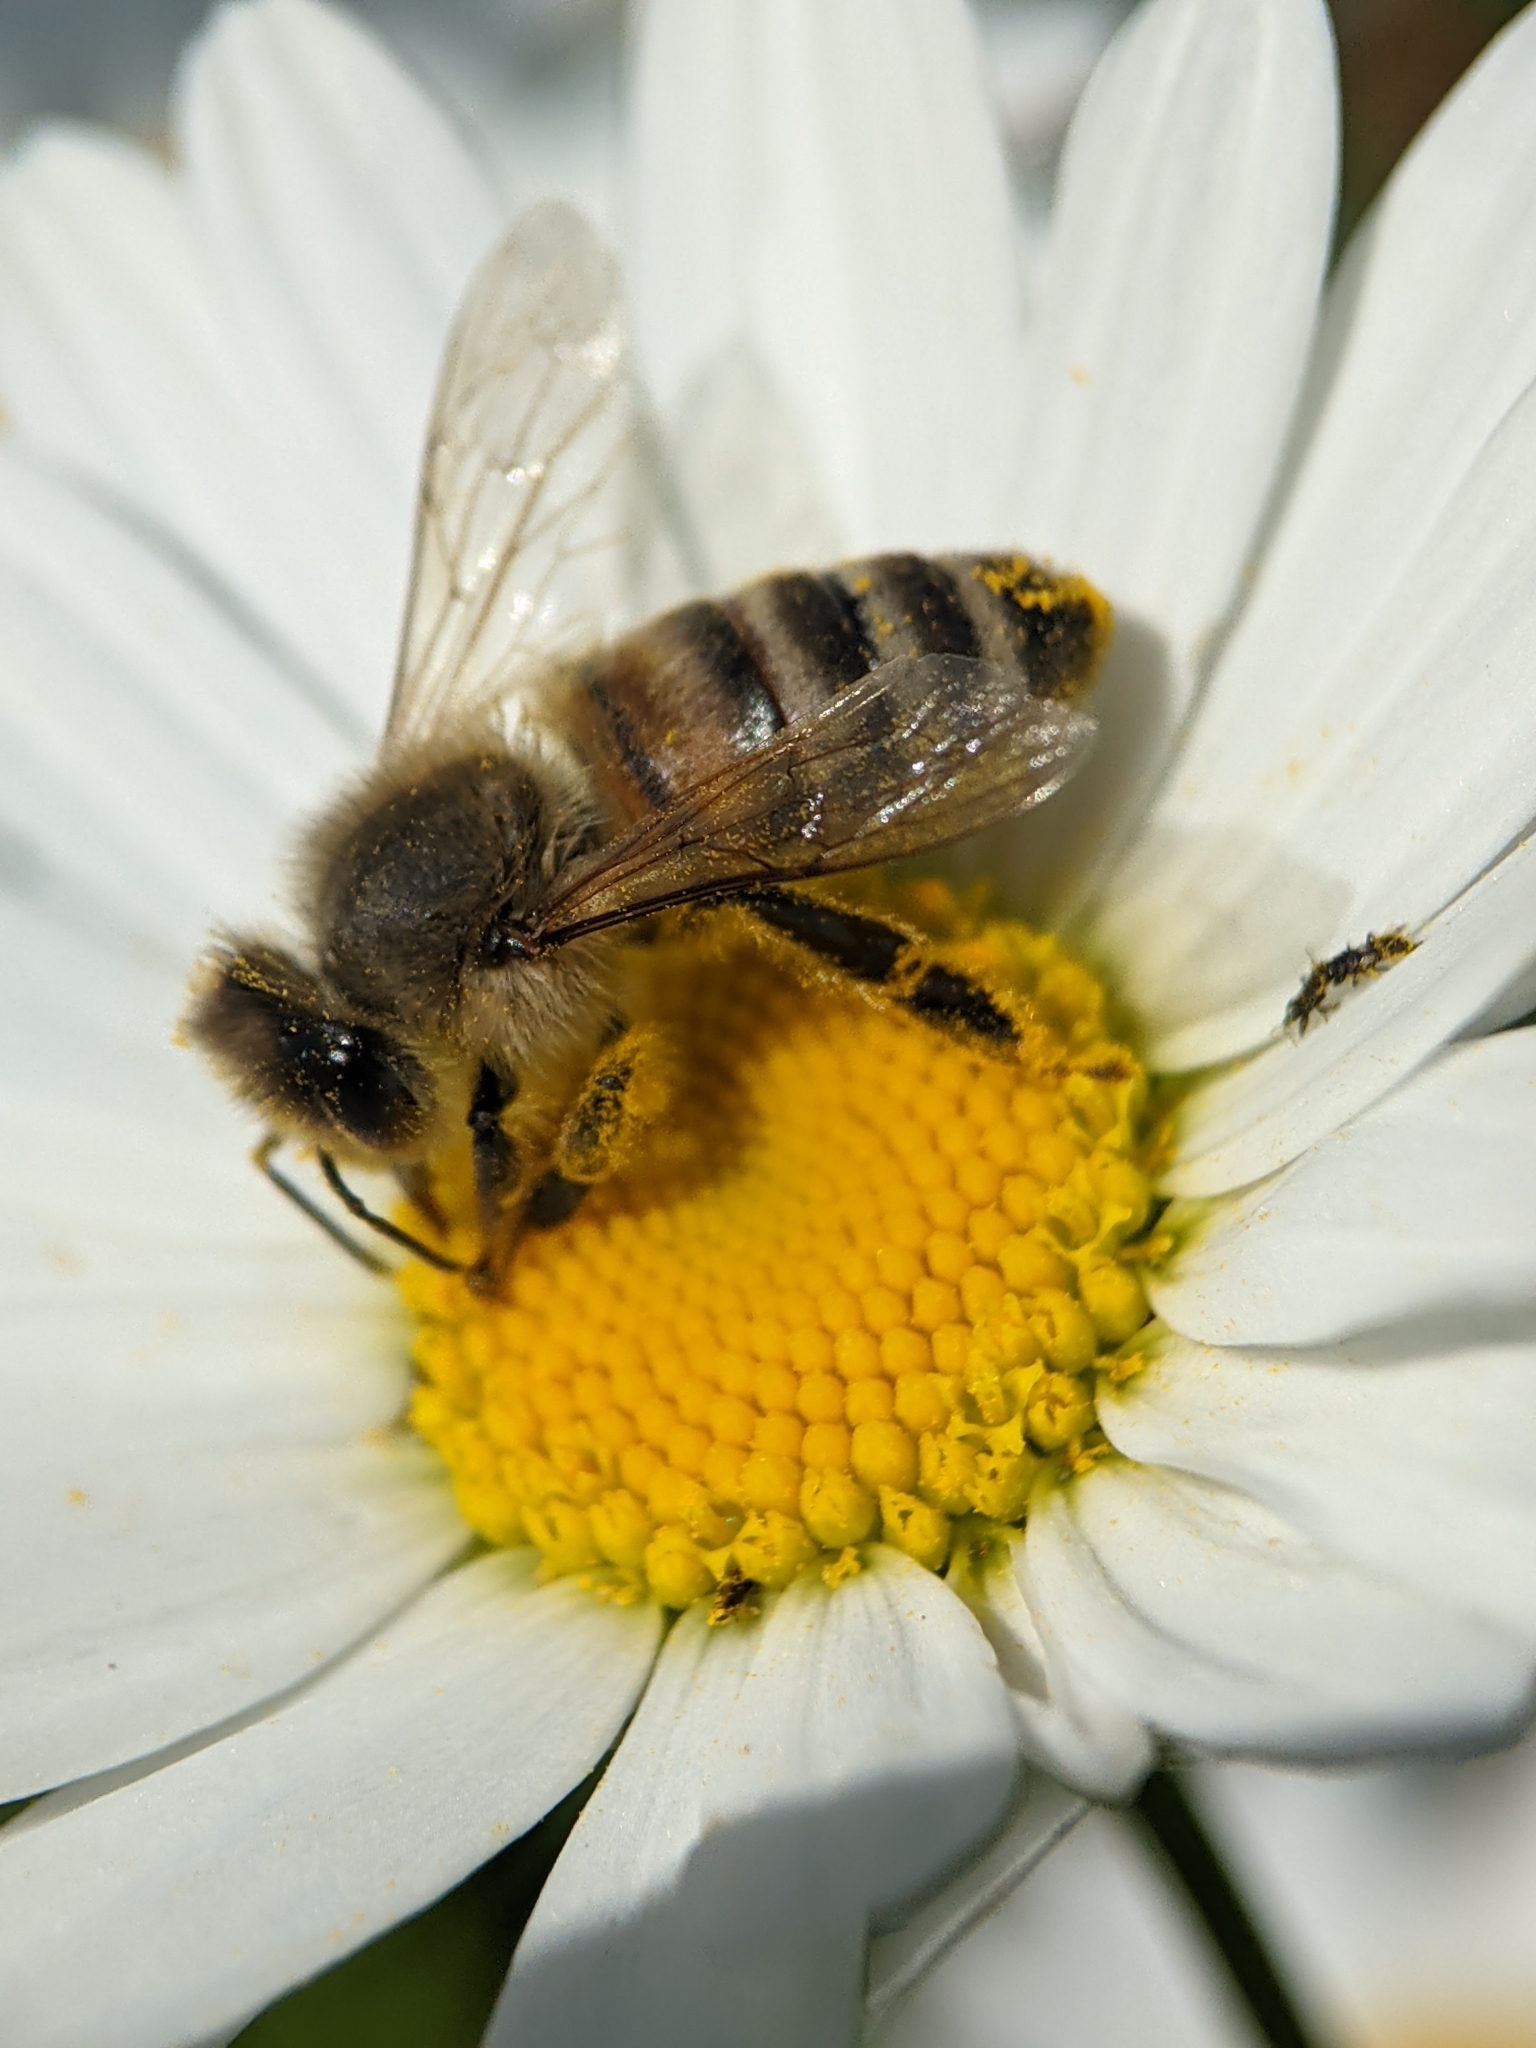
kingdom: Animalia
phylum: Arthropoda
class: Insecta
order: Hymenoptera
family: Apidae
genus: Apis
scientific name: Apis mellifera
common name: Honey bee
